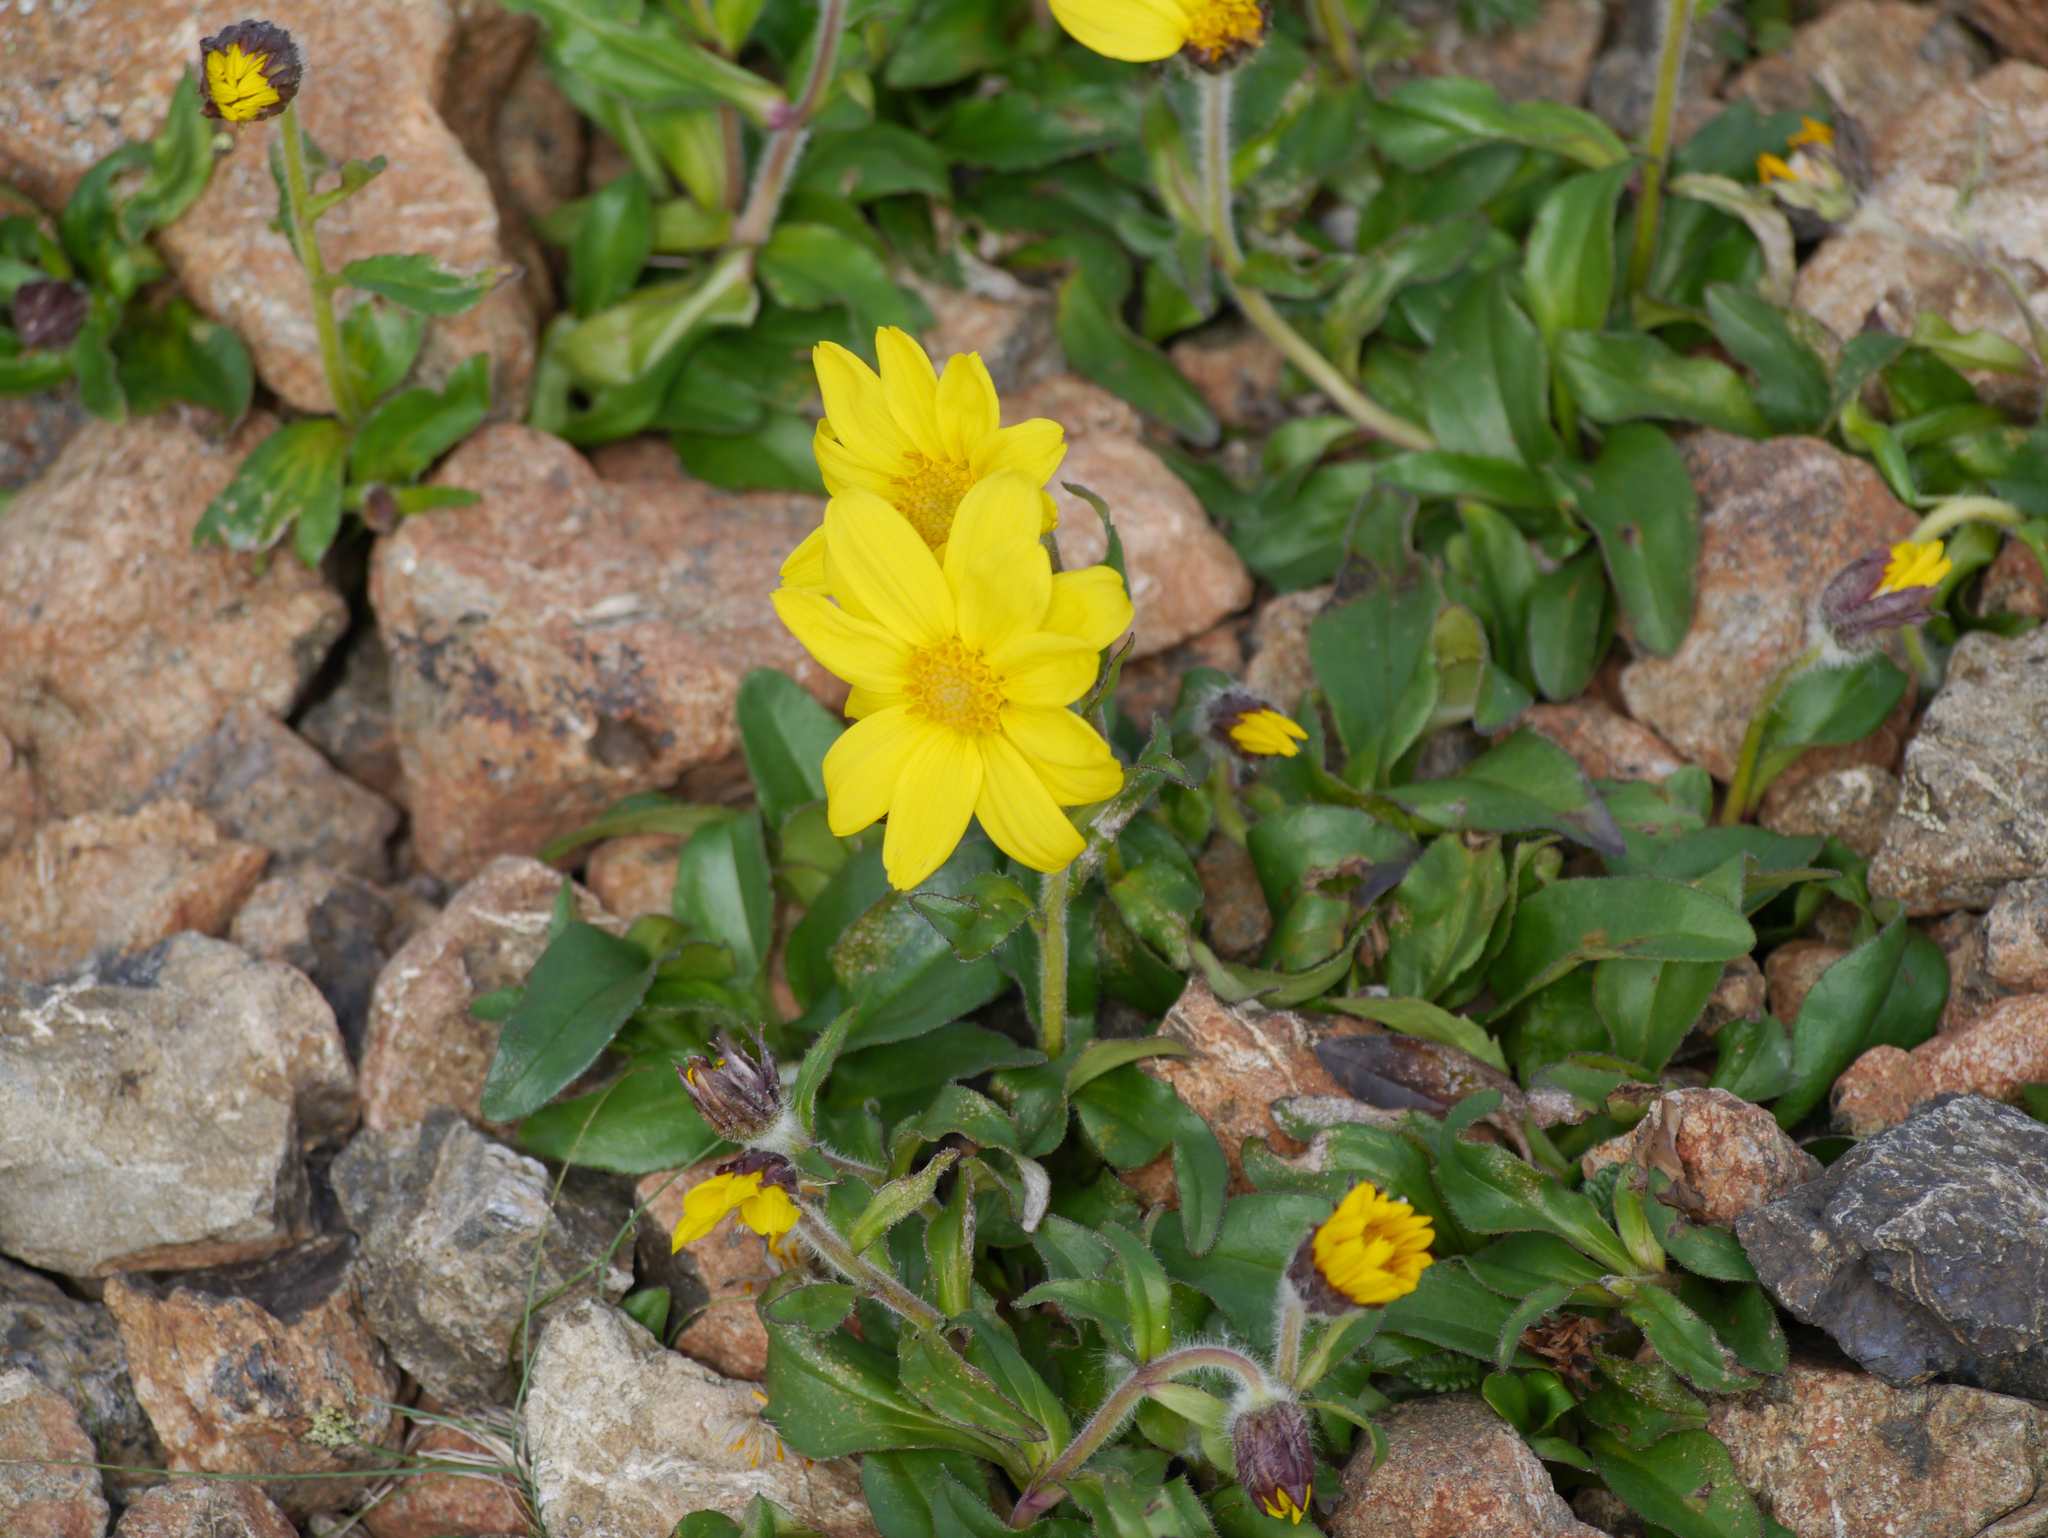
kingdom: Plantae
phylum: Tracheophyta
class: Magnoliopsida
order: Asterales
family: Asteraceae
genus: Arnica
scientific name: Arnica griscomii
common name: Snow arnica
